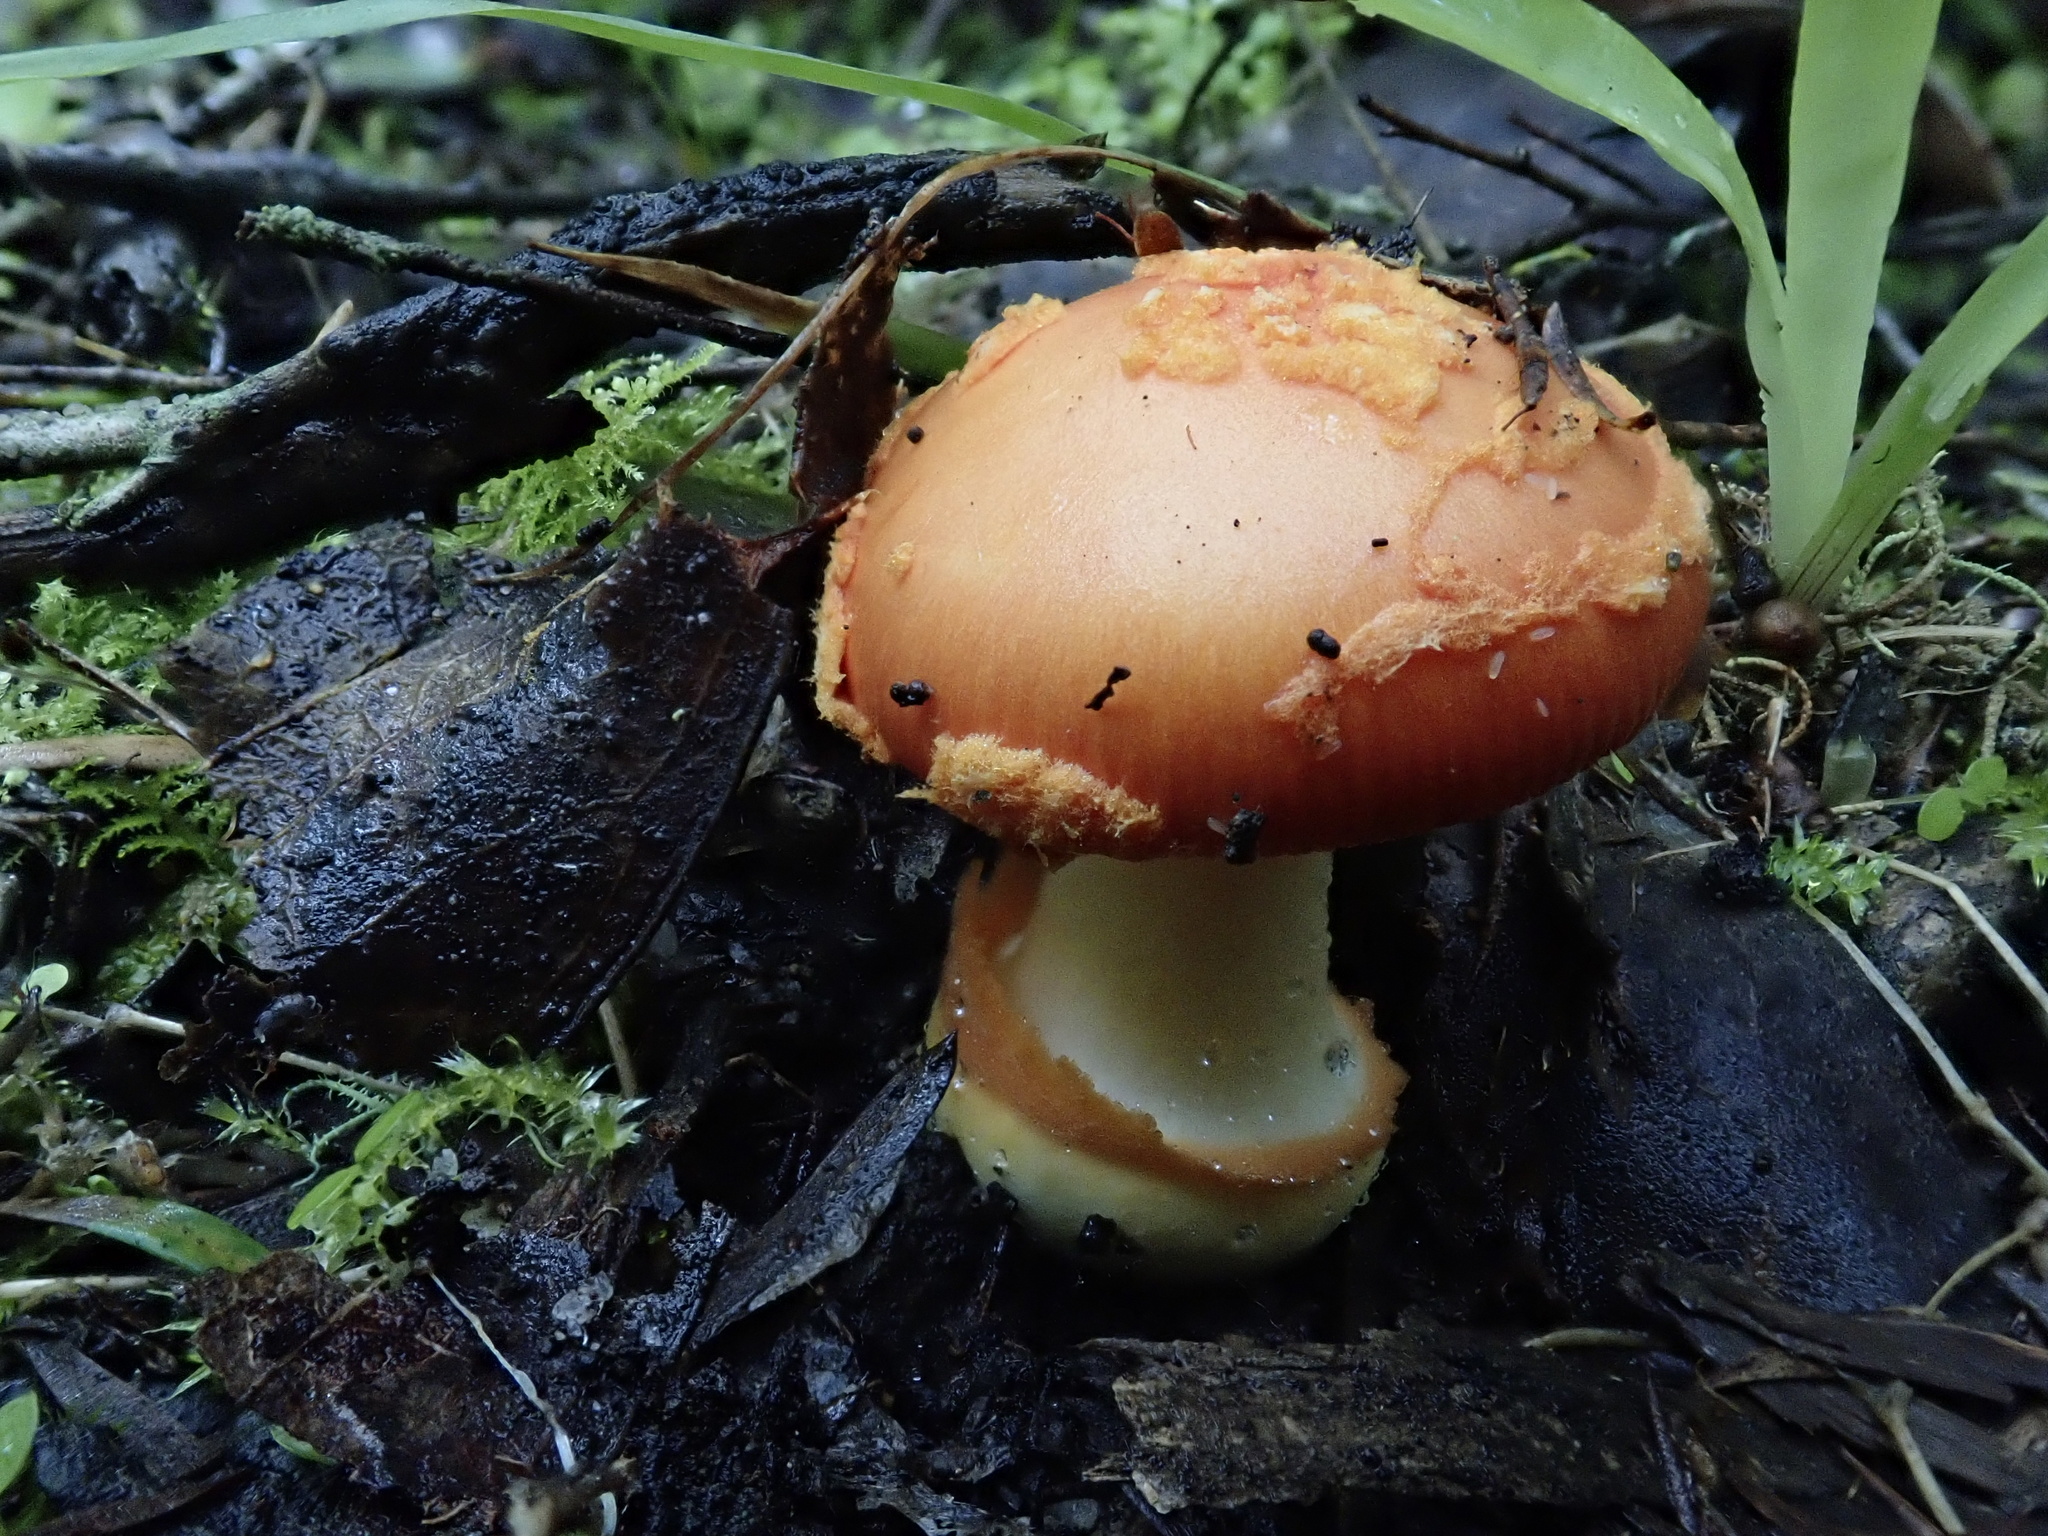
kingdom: Fungi
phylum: Basidiomycota
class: Agaricomycetes
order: Agaricales
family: Amanitaceae
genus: Amanita
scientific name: Amanita xanthocephala
